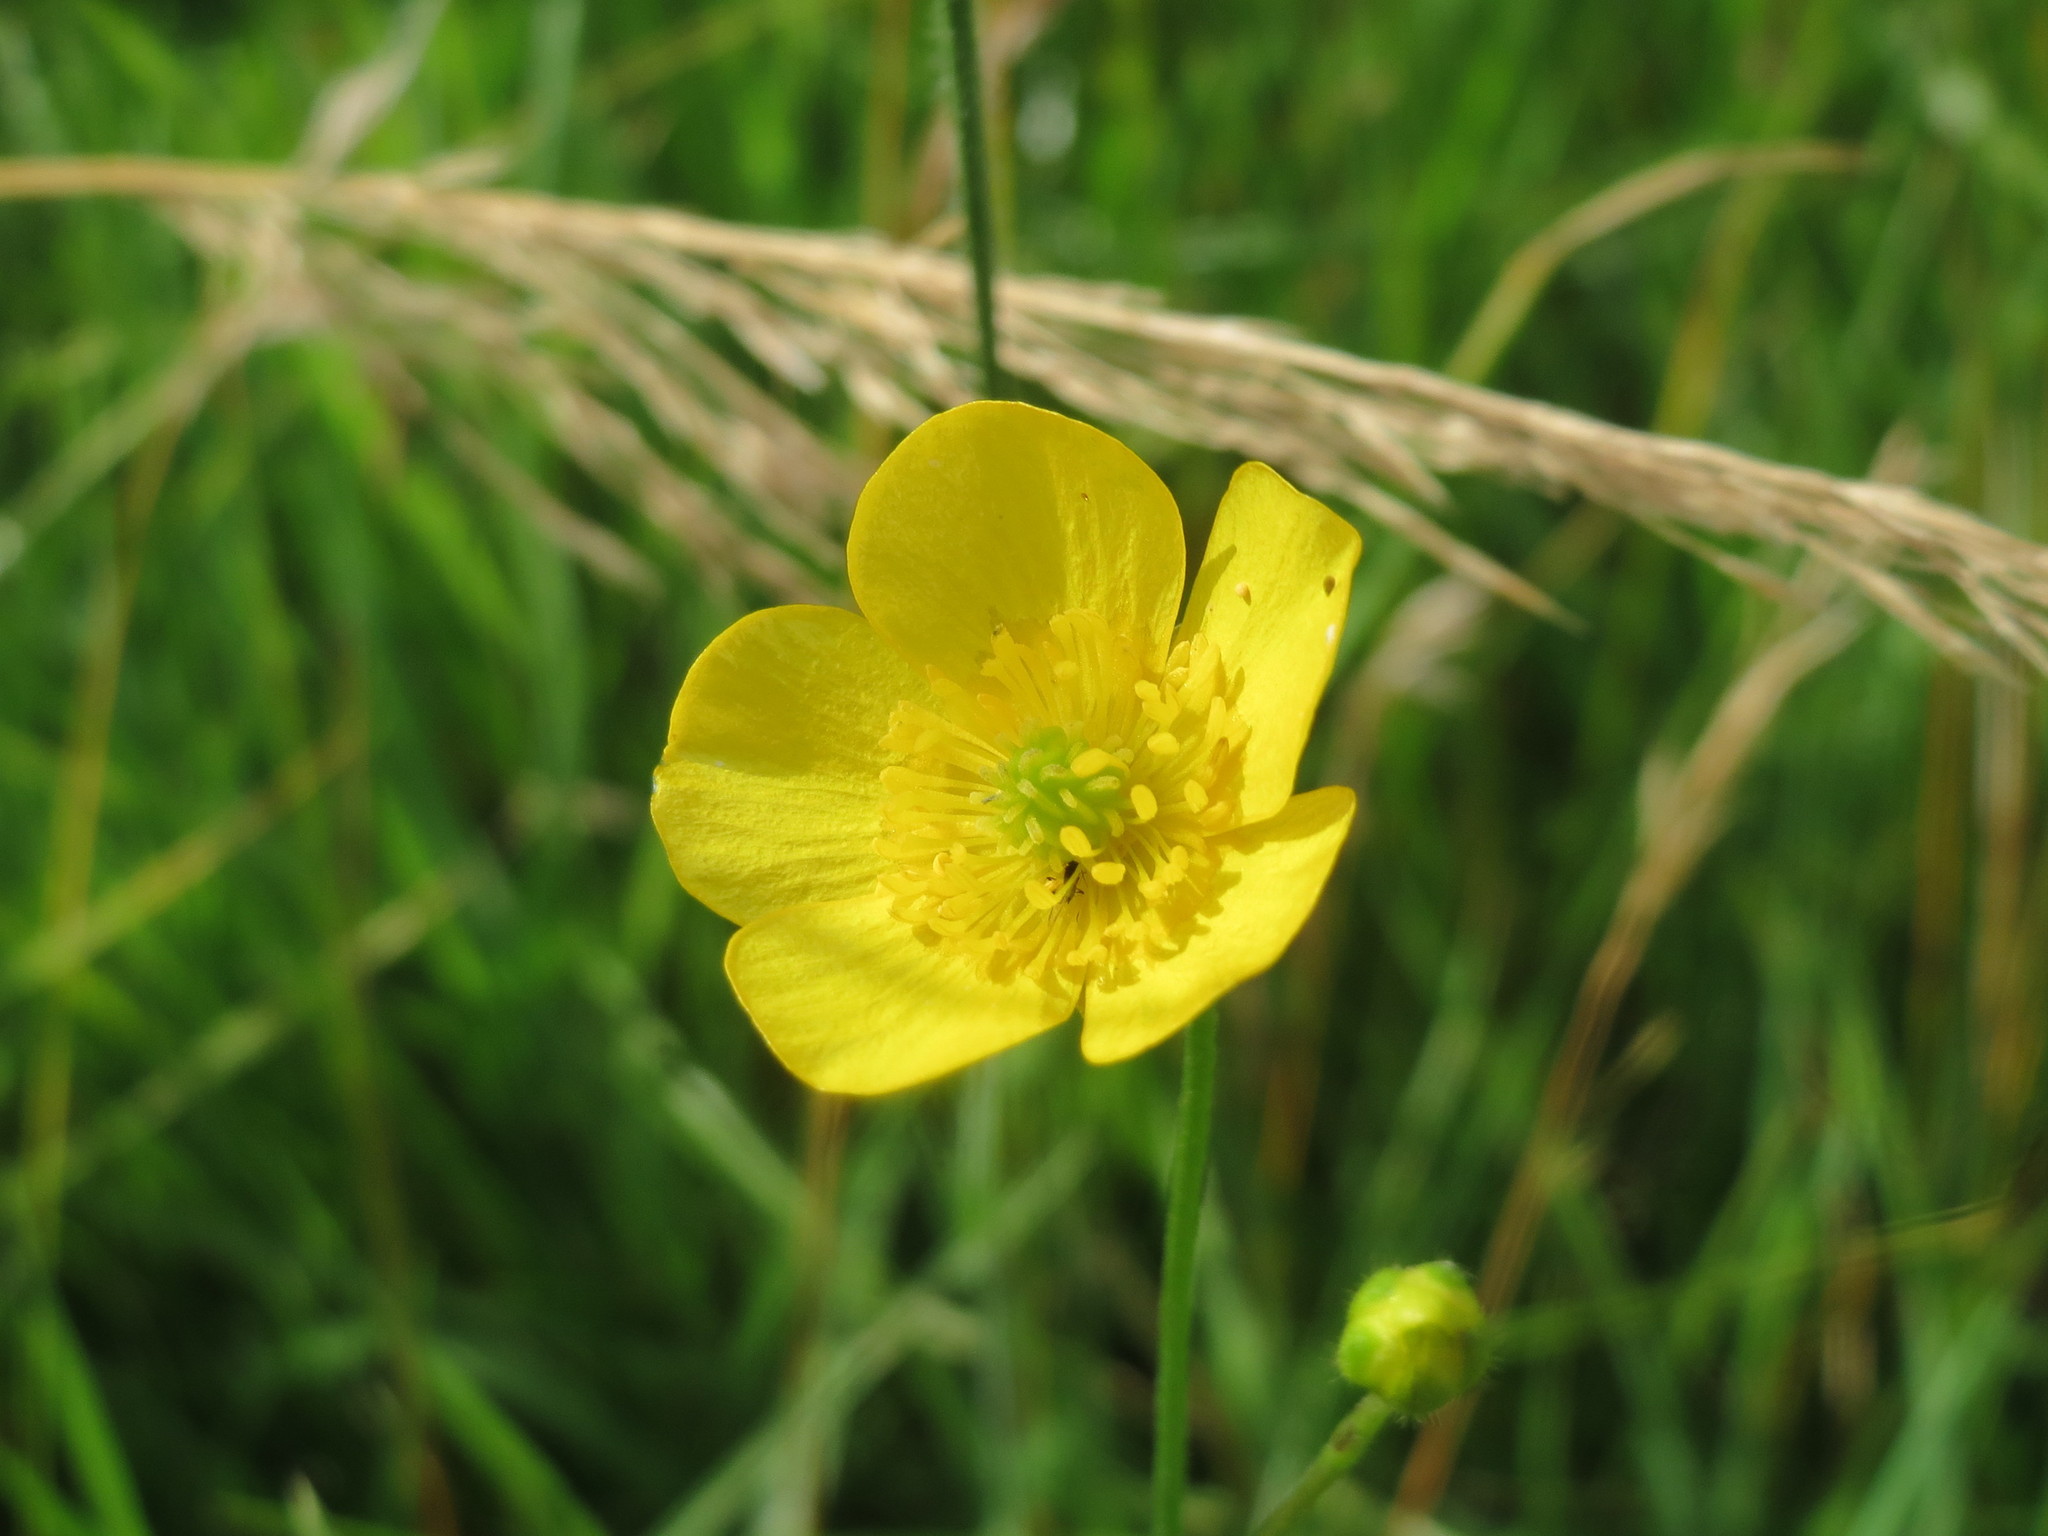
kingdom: Plantae
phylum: Tracheophyta
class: Magnoliopsida
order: Ranunculales
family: Ranunculaceae
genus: Ranunculus
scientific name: Ranunculus acris
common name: Meadow buttercup
